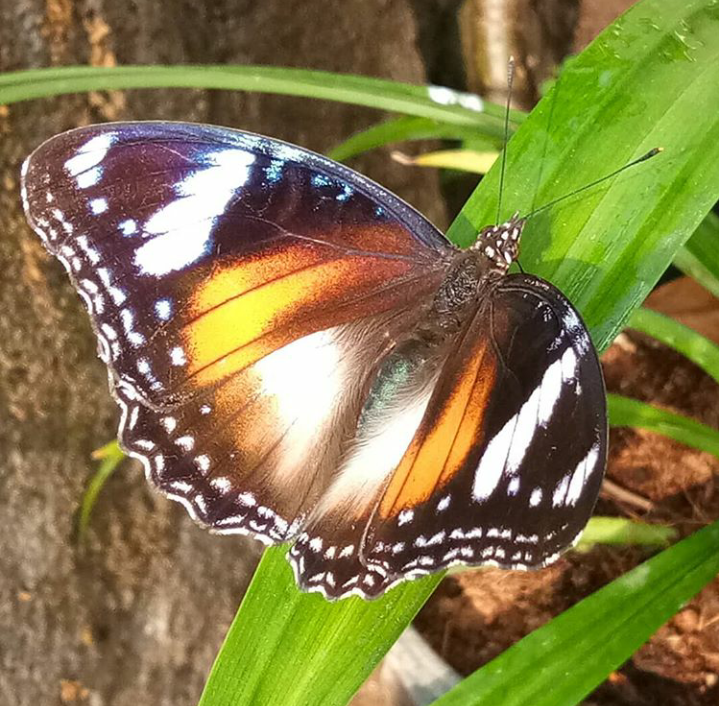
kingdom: Animalia
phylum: Arthropoda
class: Insecta
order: Lepidoptera
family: Nymphalidae
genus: Hypolimnas
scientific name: Hypolimnas bolina
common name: Great eggfly
